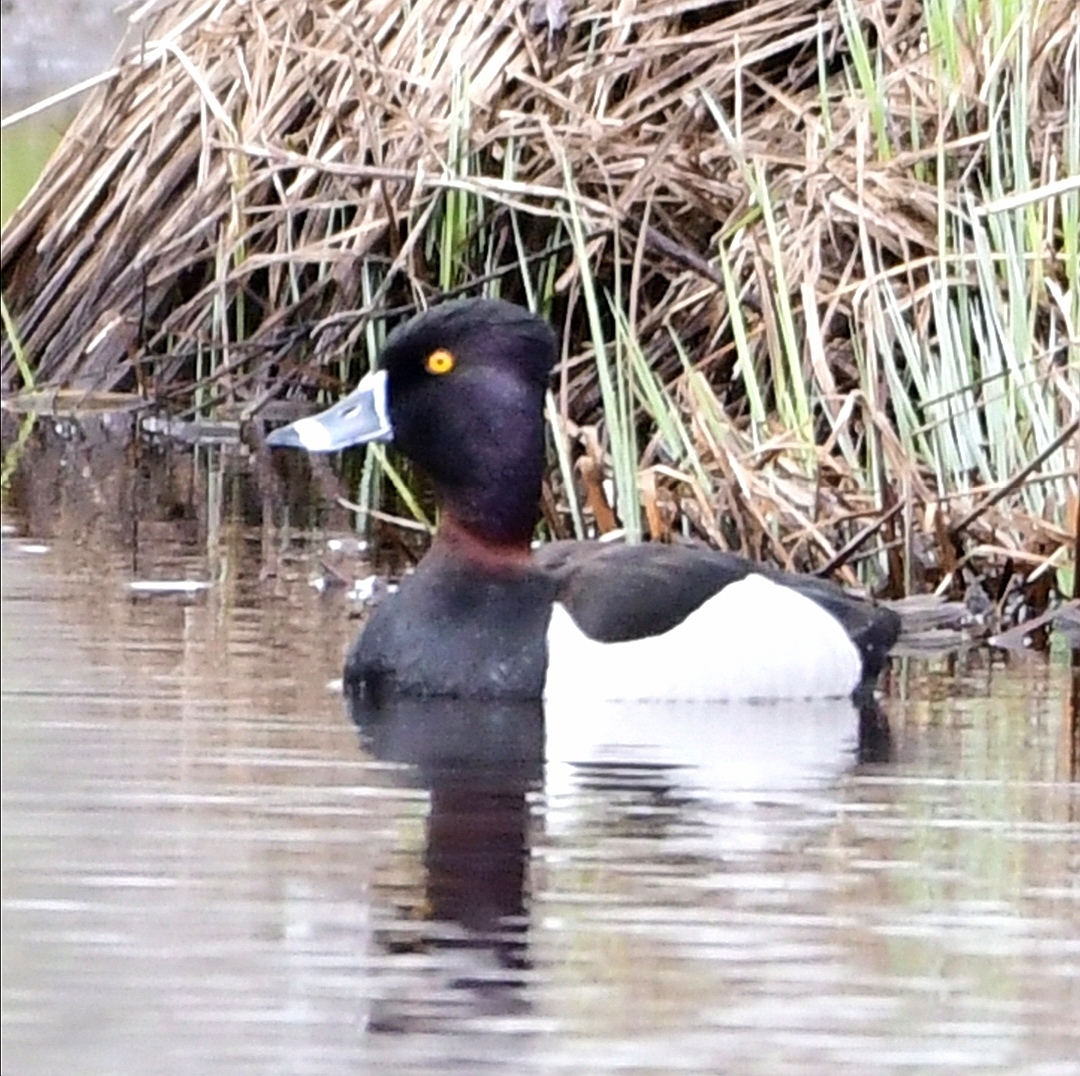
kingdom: Animalia
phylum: Chordata
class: Aves
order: Anseriformes
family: Anatidae
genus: Aythya
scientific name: Aythya collaris
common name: Ring-necked duck
